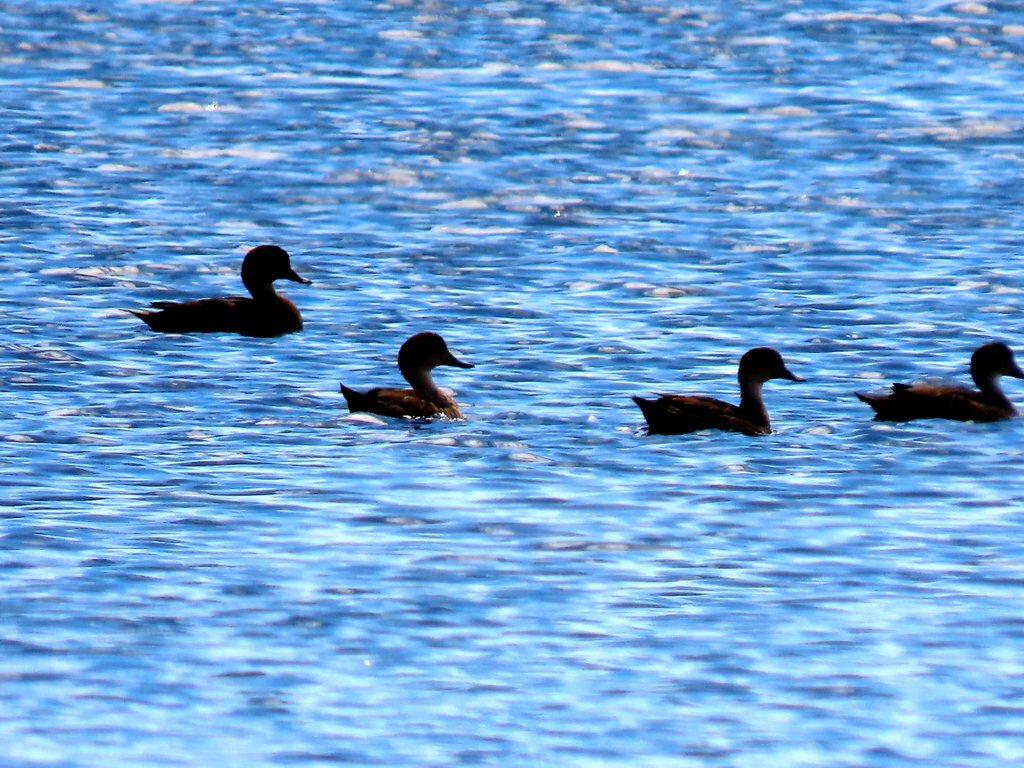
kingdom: Animalia
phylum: Chordata
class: Aves
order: Anseriformes
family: Anatidae
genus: Aythya
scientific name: Aythya australis
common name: Hardhead
